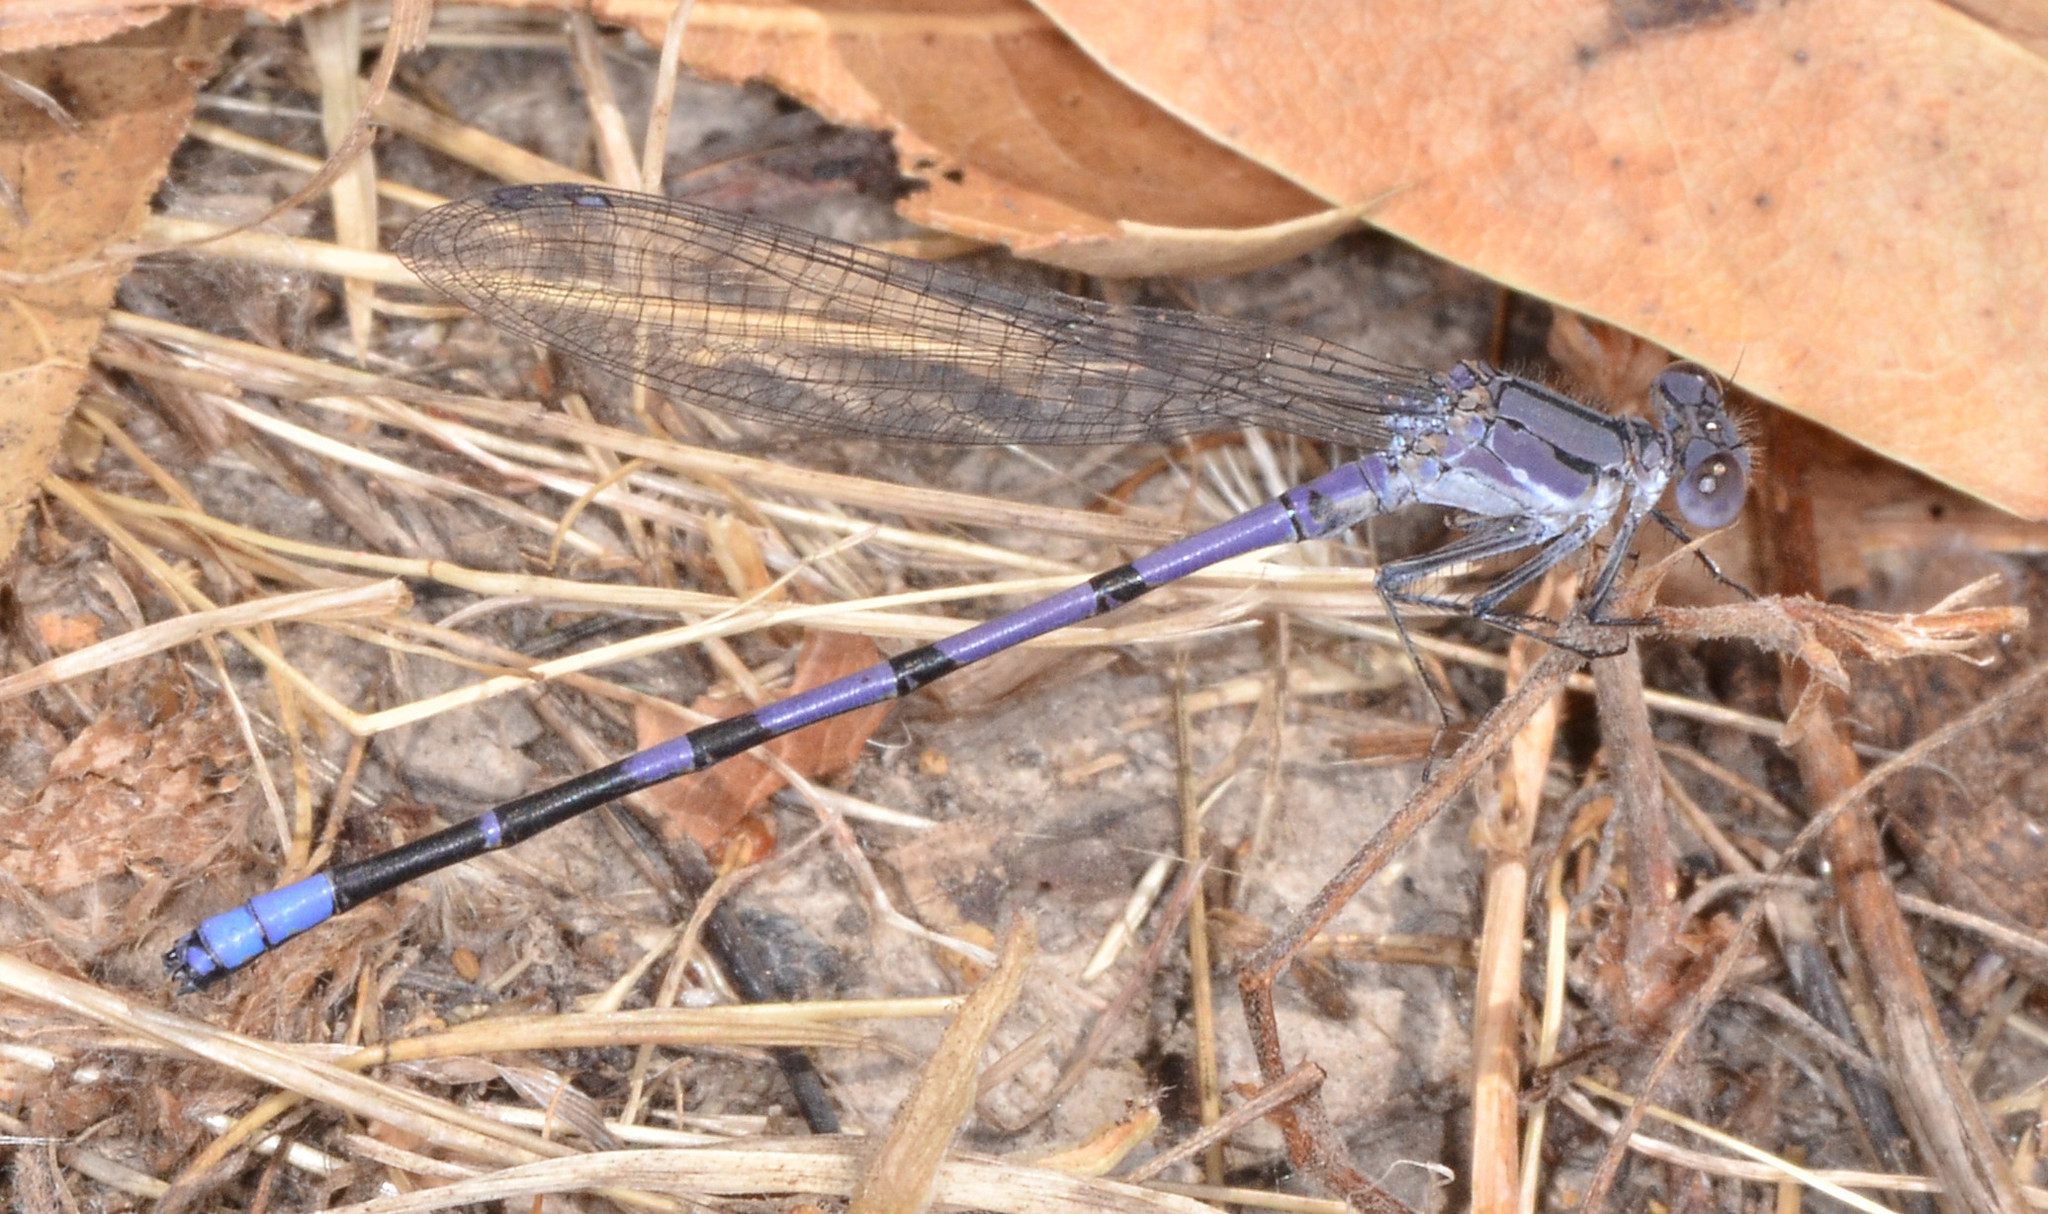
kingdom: Animalia
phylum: Arthropoda
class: Insecta
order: Odonata
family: Coenagrionidae
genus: Argia
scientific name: Argia emma
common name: Emma's dancer
